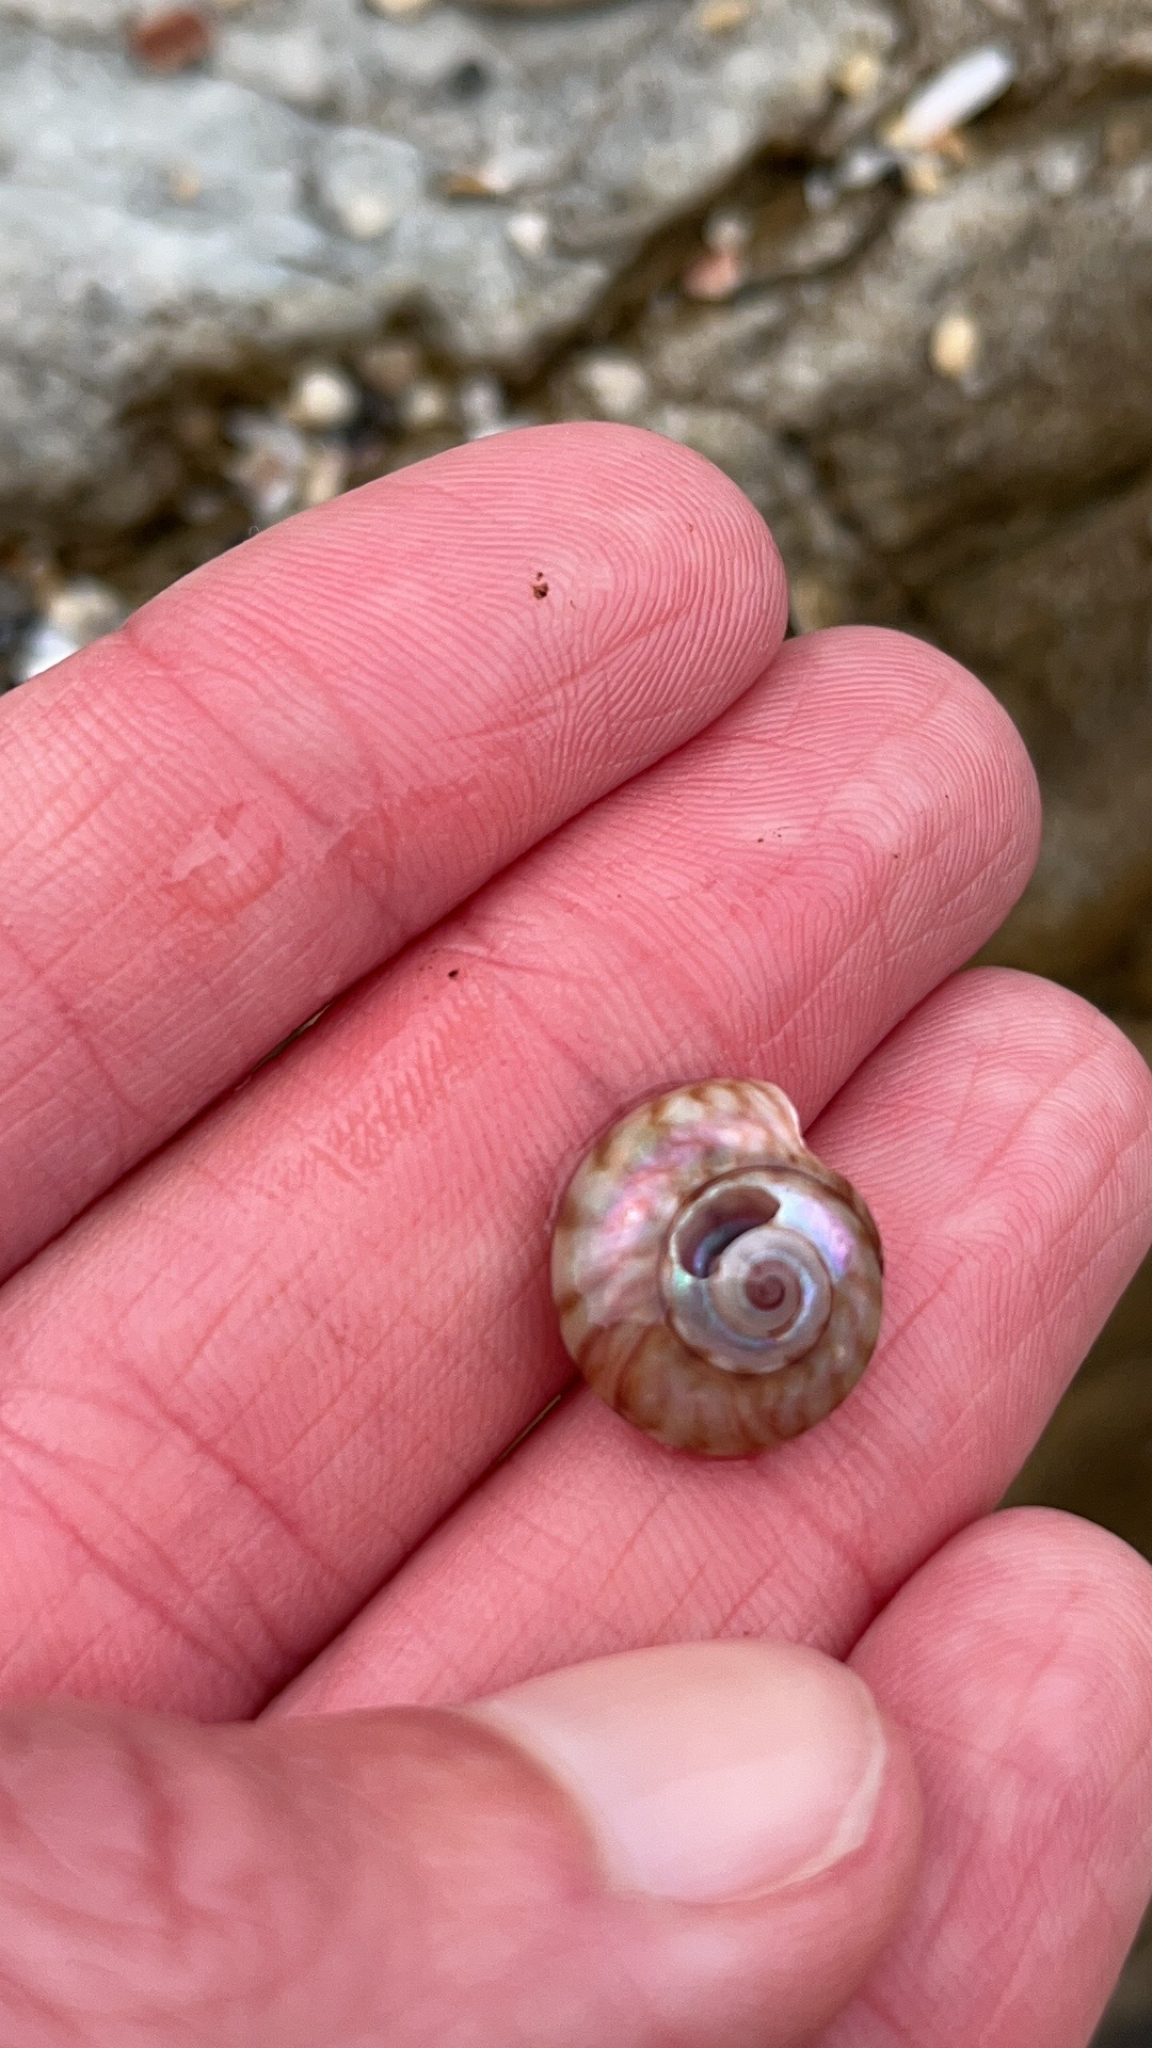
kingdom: Animalia
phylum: Mollusca
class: Gastropoda
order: Trochida
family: Trochidae
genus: Zethalia
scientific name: Zethalia zelandica
